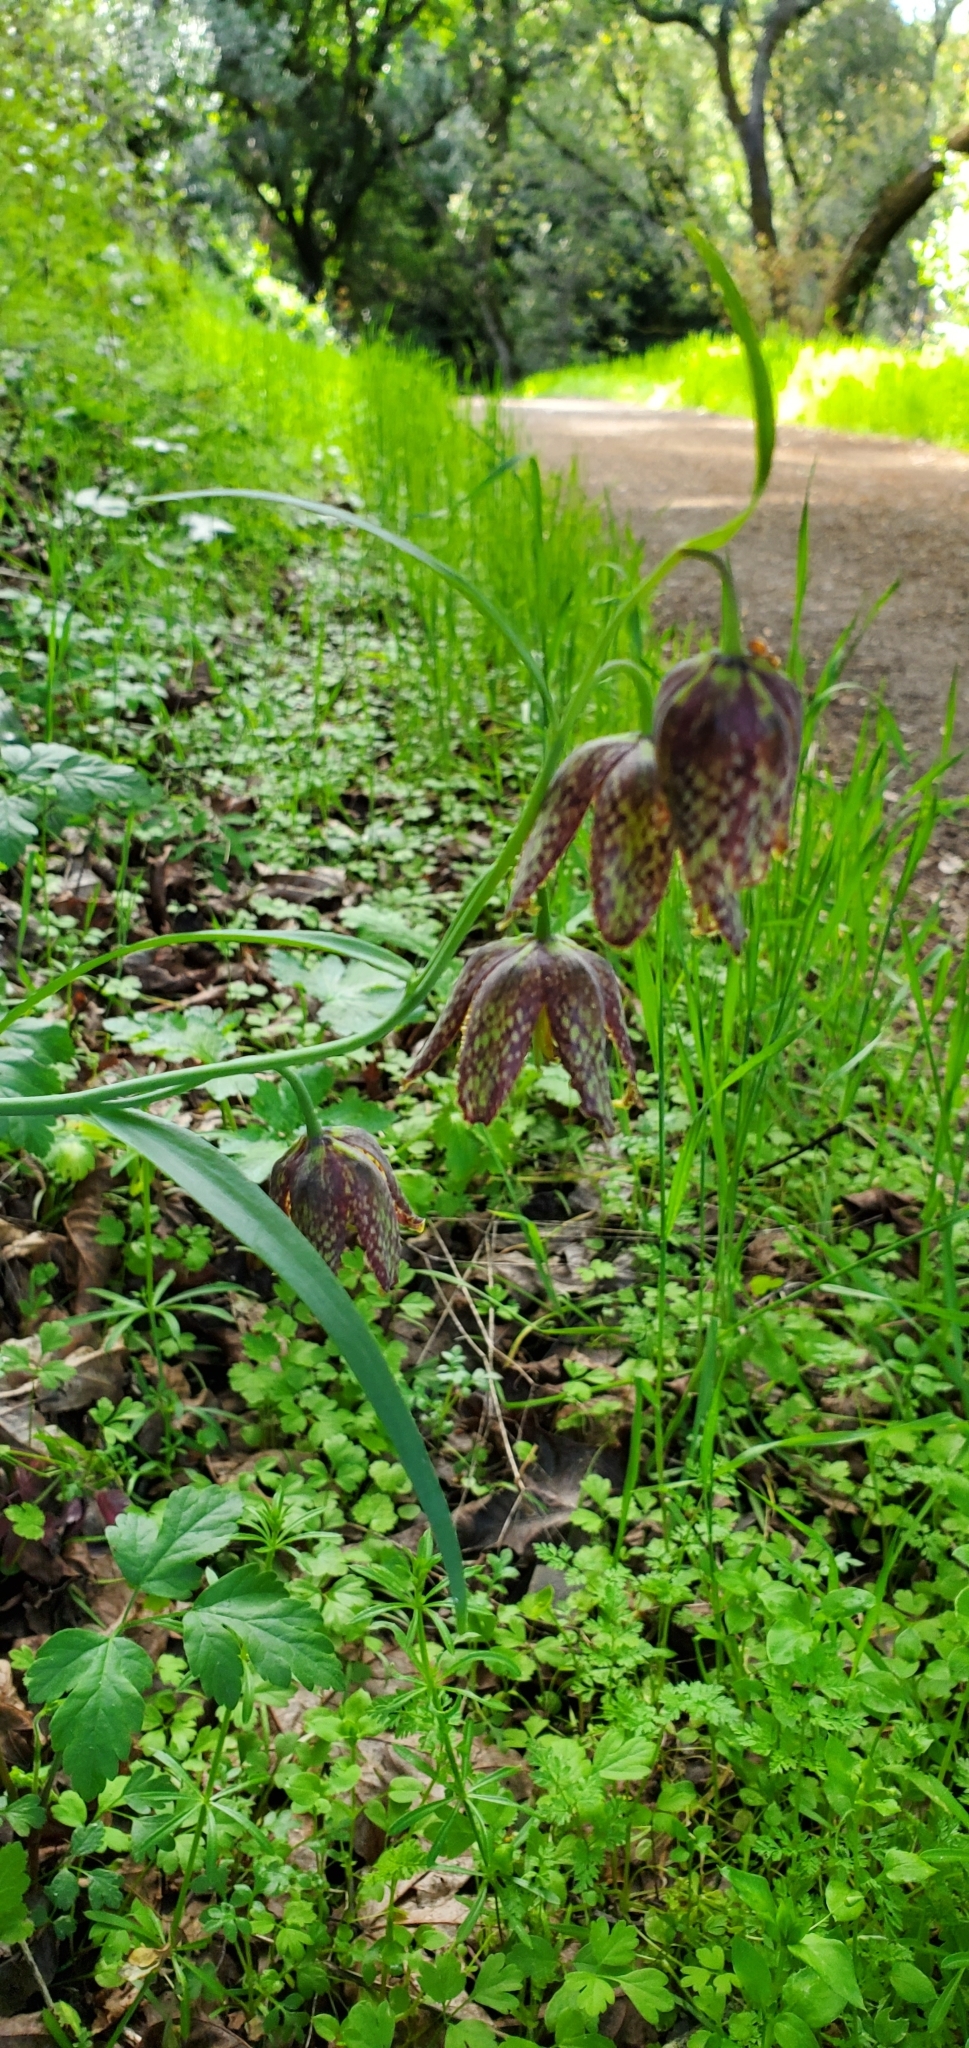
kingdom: Plantae
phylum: Tracheophyta
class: Liliopsida
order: Liliales
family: Liliaceae
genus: Fritillaria
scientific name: Fritillaria affinis
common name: Ojai fritillary
